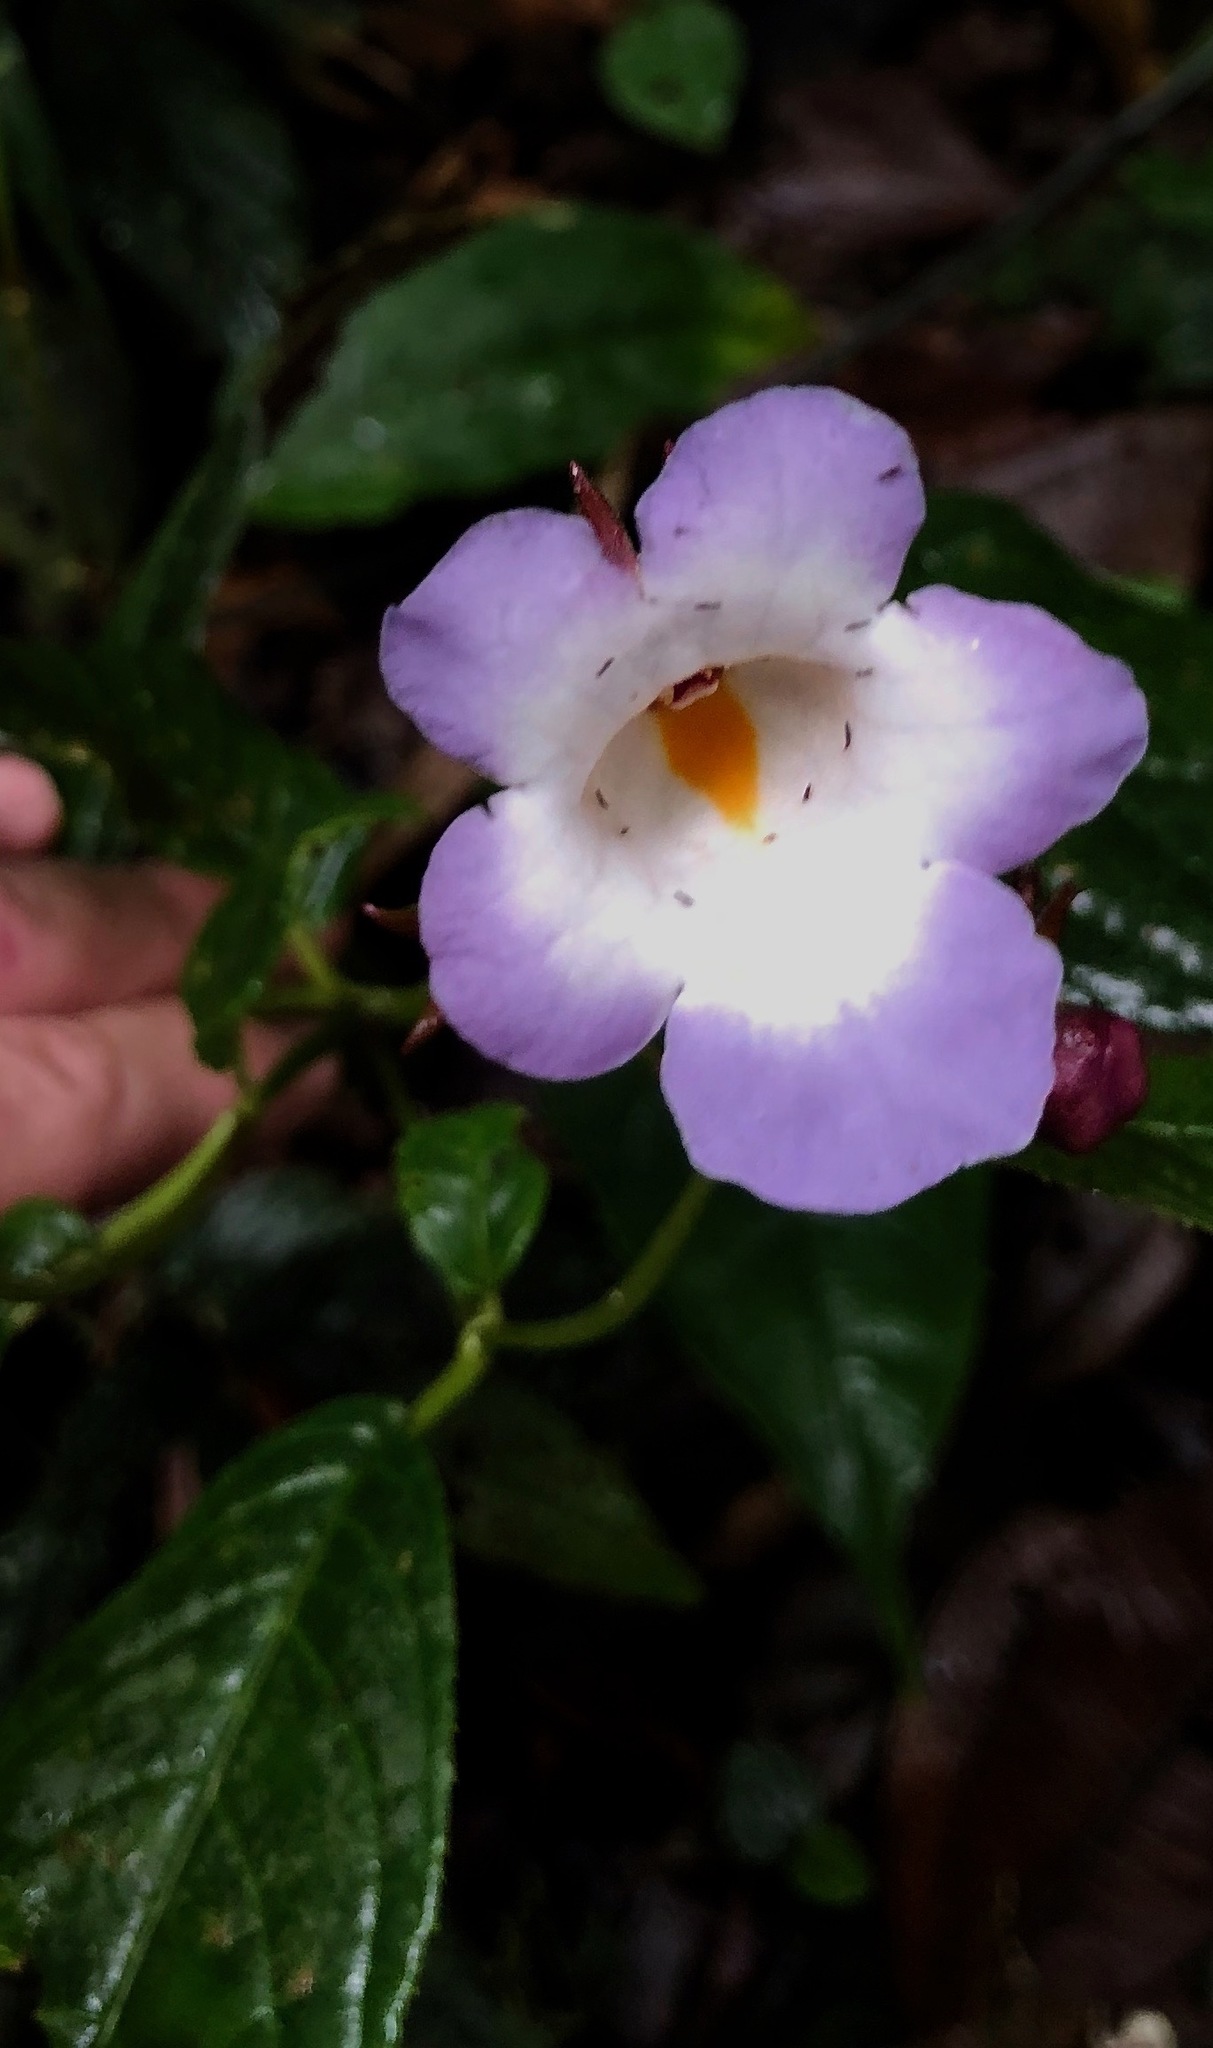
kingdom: Plantae
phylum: Tracheophyta
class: Magnoliopsida
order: Lamiales
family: Gesneriaceae
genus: Monopyle
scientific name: Monopyle macrocarpa
